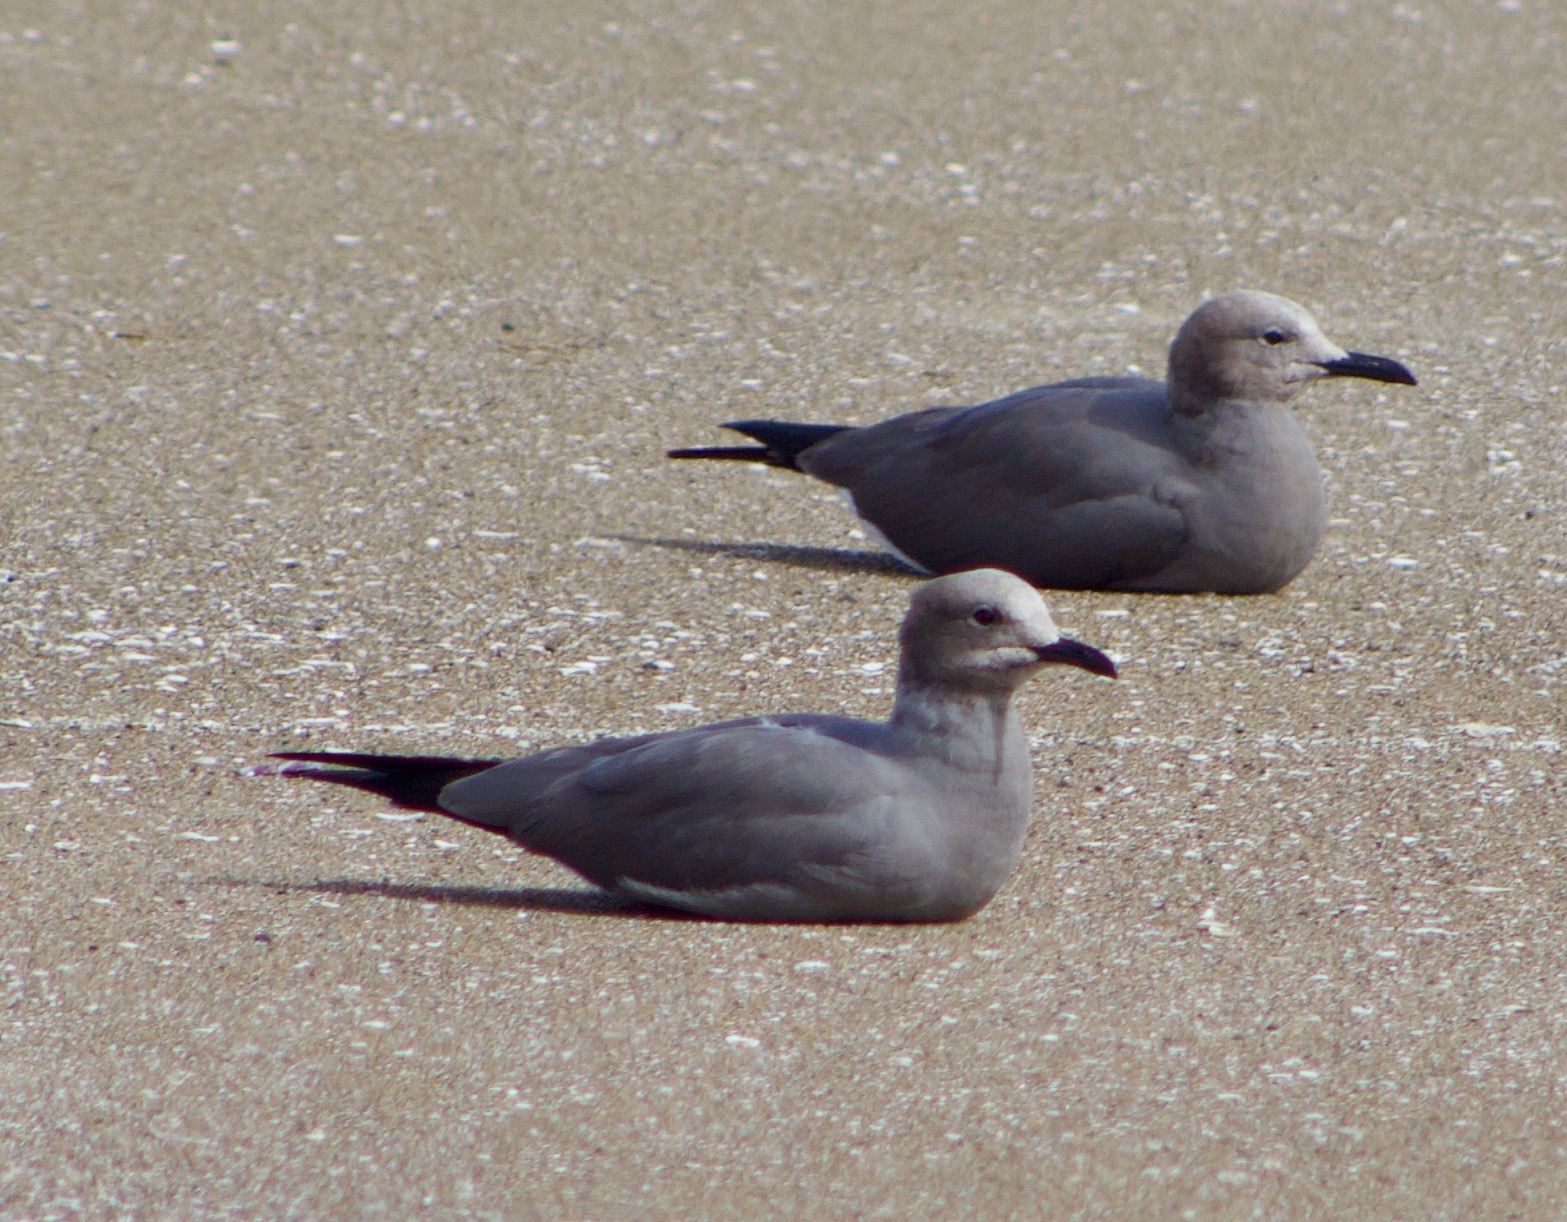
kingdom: Animalia
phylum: Chordata
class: Aves
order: Charadriiformes
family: Laridae
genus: Leucophaeus
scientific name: Leucophaeus modestus
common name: Gray gull
